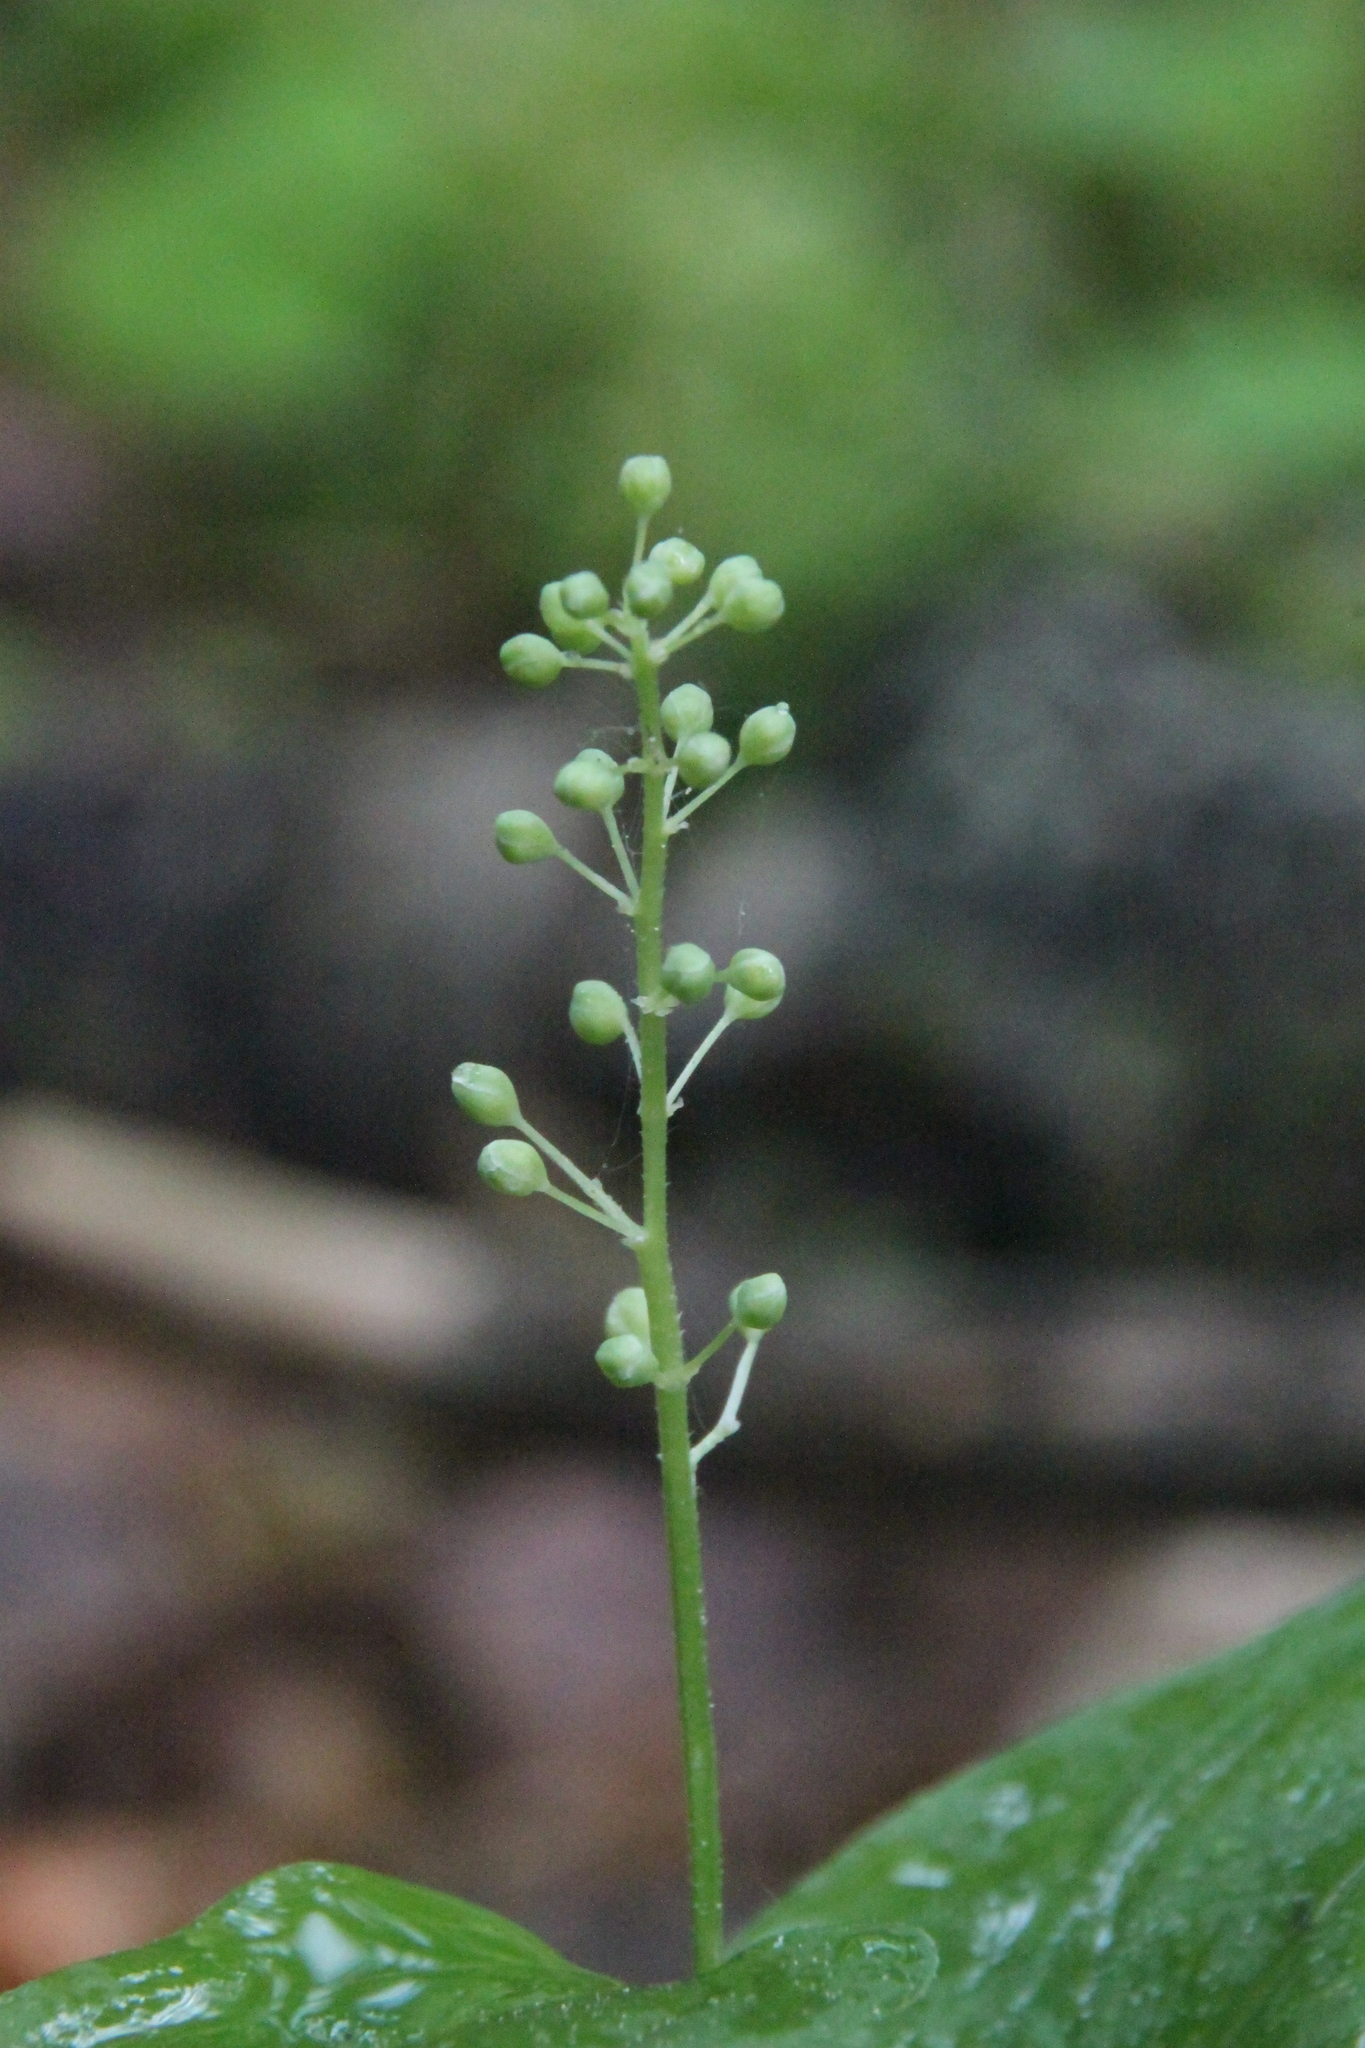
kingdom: Plantae
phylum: Tracheophyta
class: Liliopsida
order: Asparagales
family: Asparagaceae
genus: Maianthemum
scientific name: Maianthemum bifolium
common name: May lily
